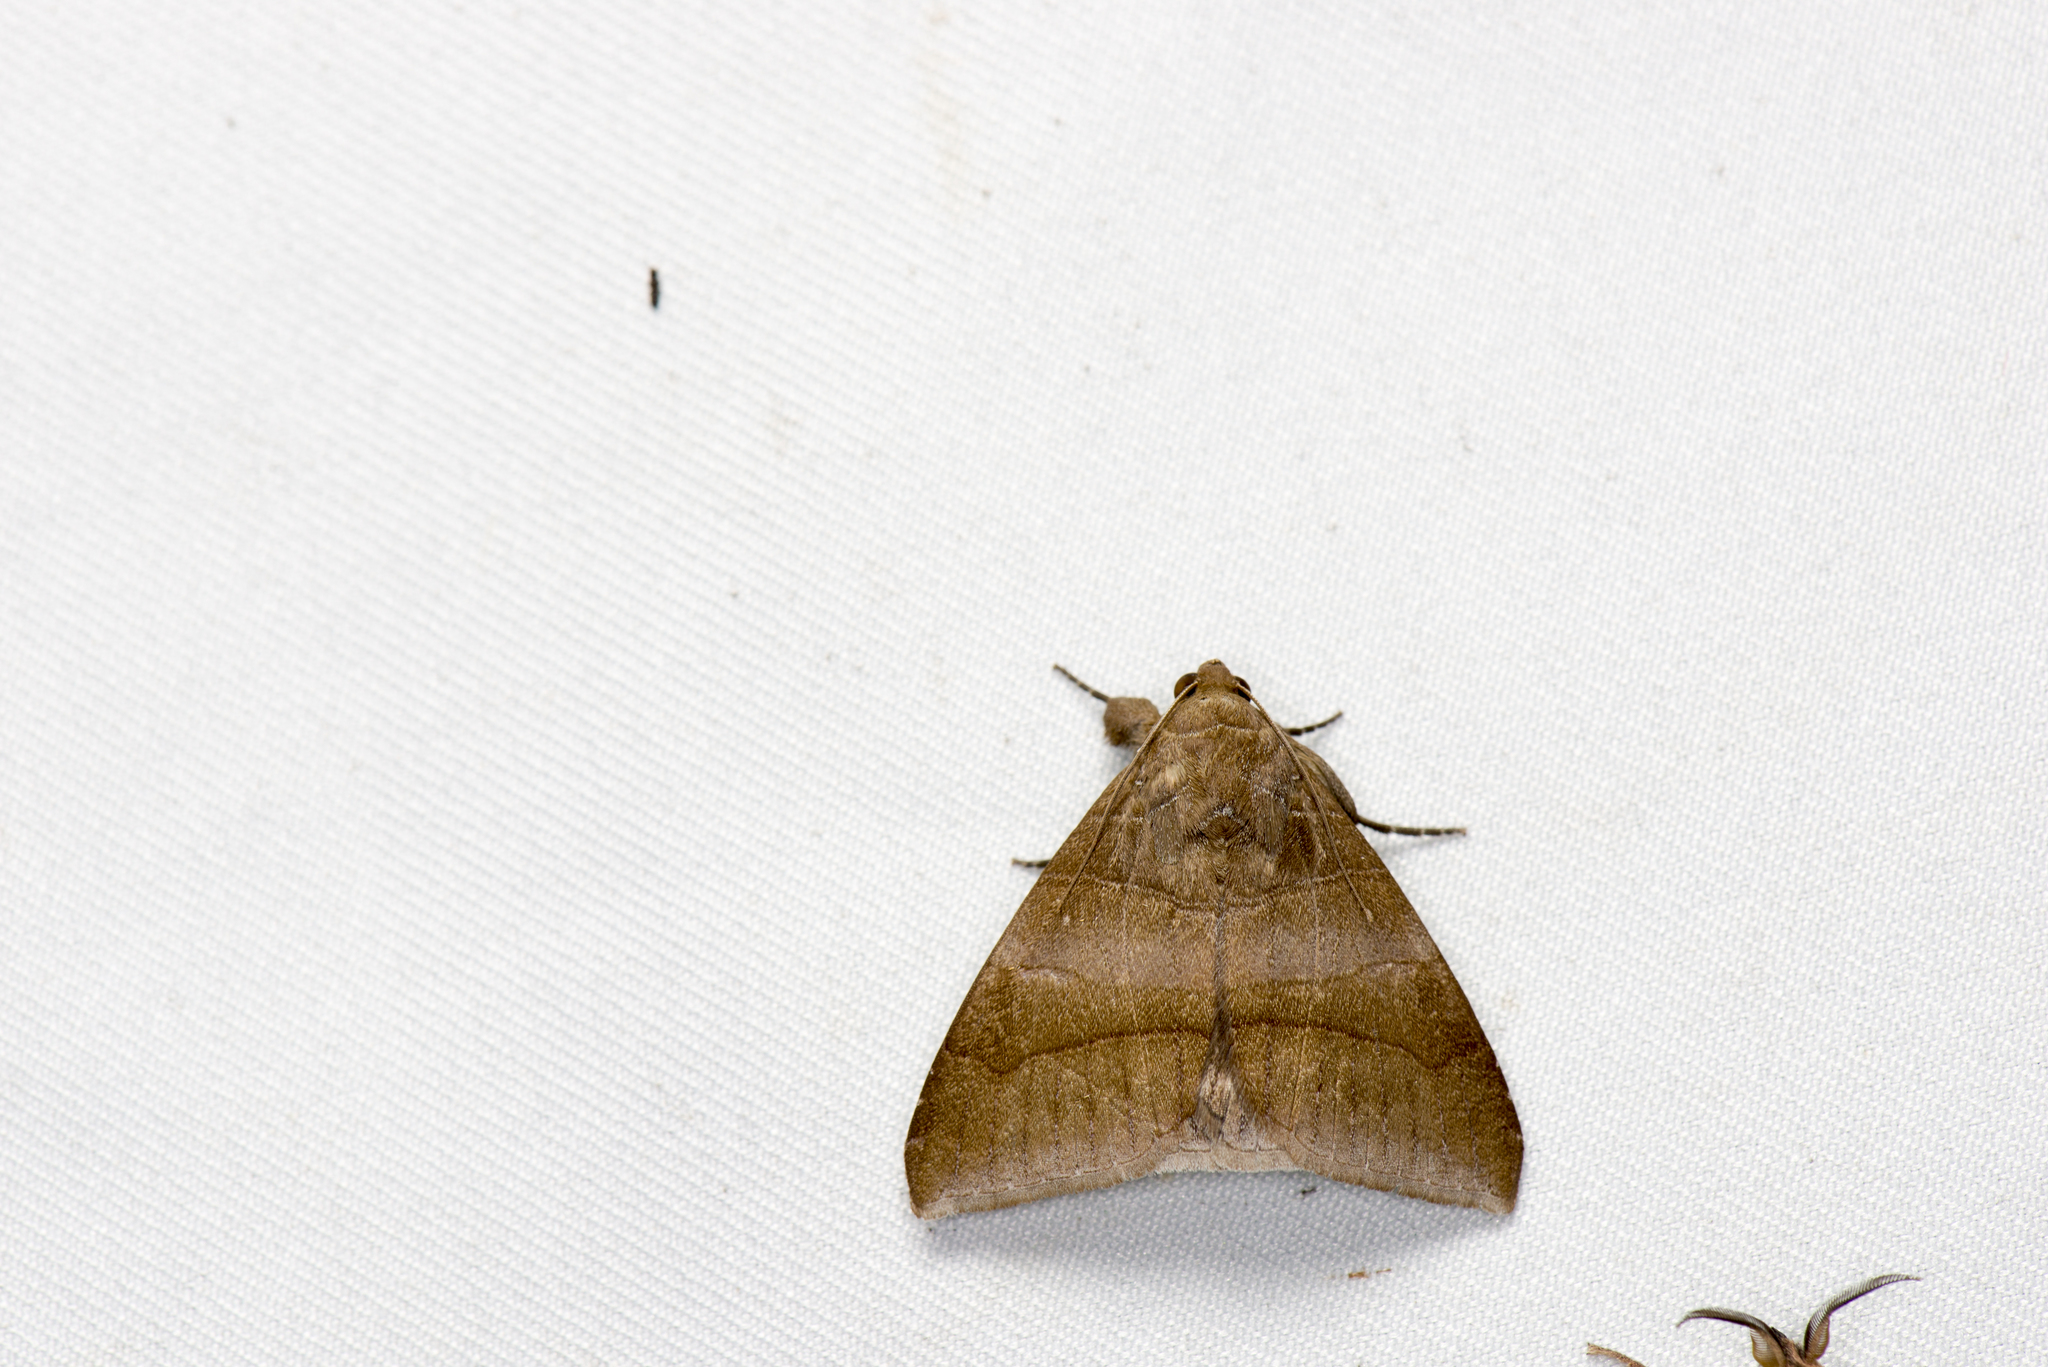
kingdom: Animalia
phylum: Arthropoda
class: Insecta
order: Lepidoptera
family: Erebidae
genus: Bastilla
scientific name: Bastilla absentimacula
